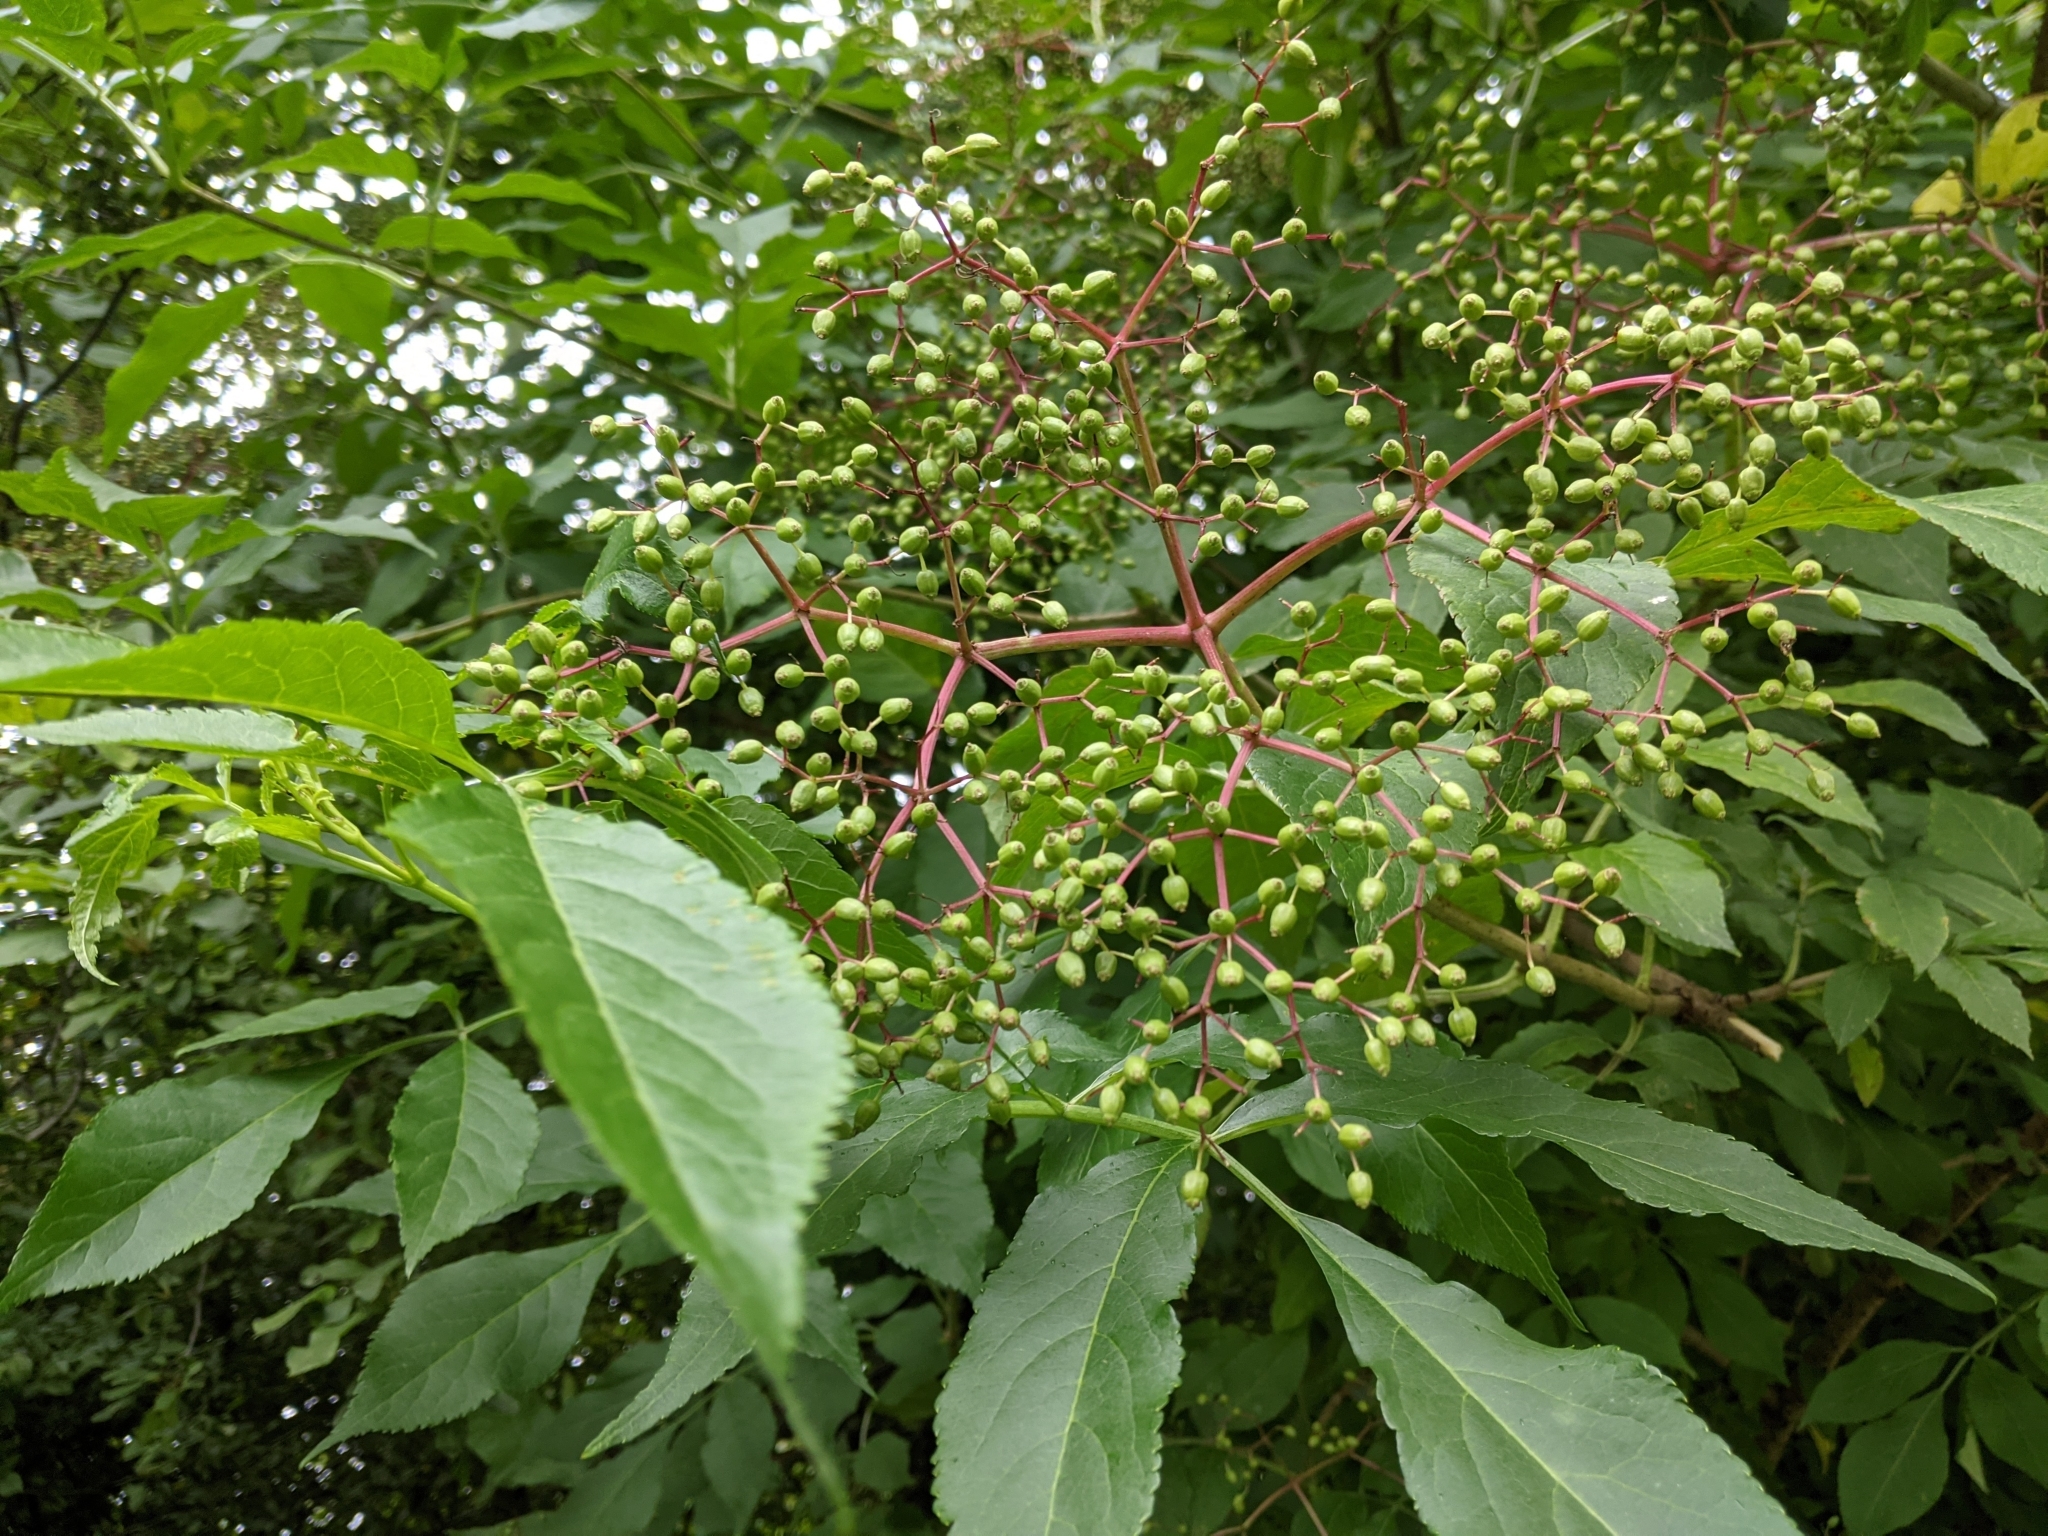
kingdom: Plantae
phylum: Tracheophyta
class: Magnoliopsida
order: Dipsacales
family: Viburnaceae
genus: Sambucus
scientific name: Sambucus nigra
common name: Elder
